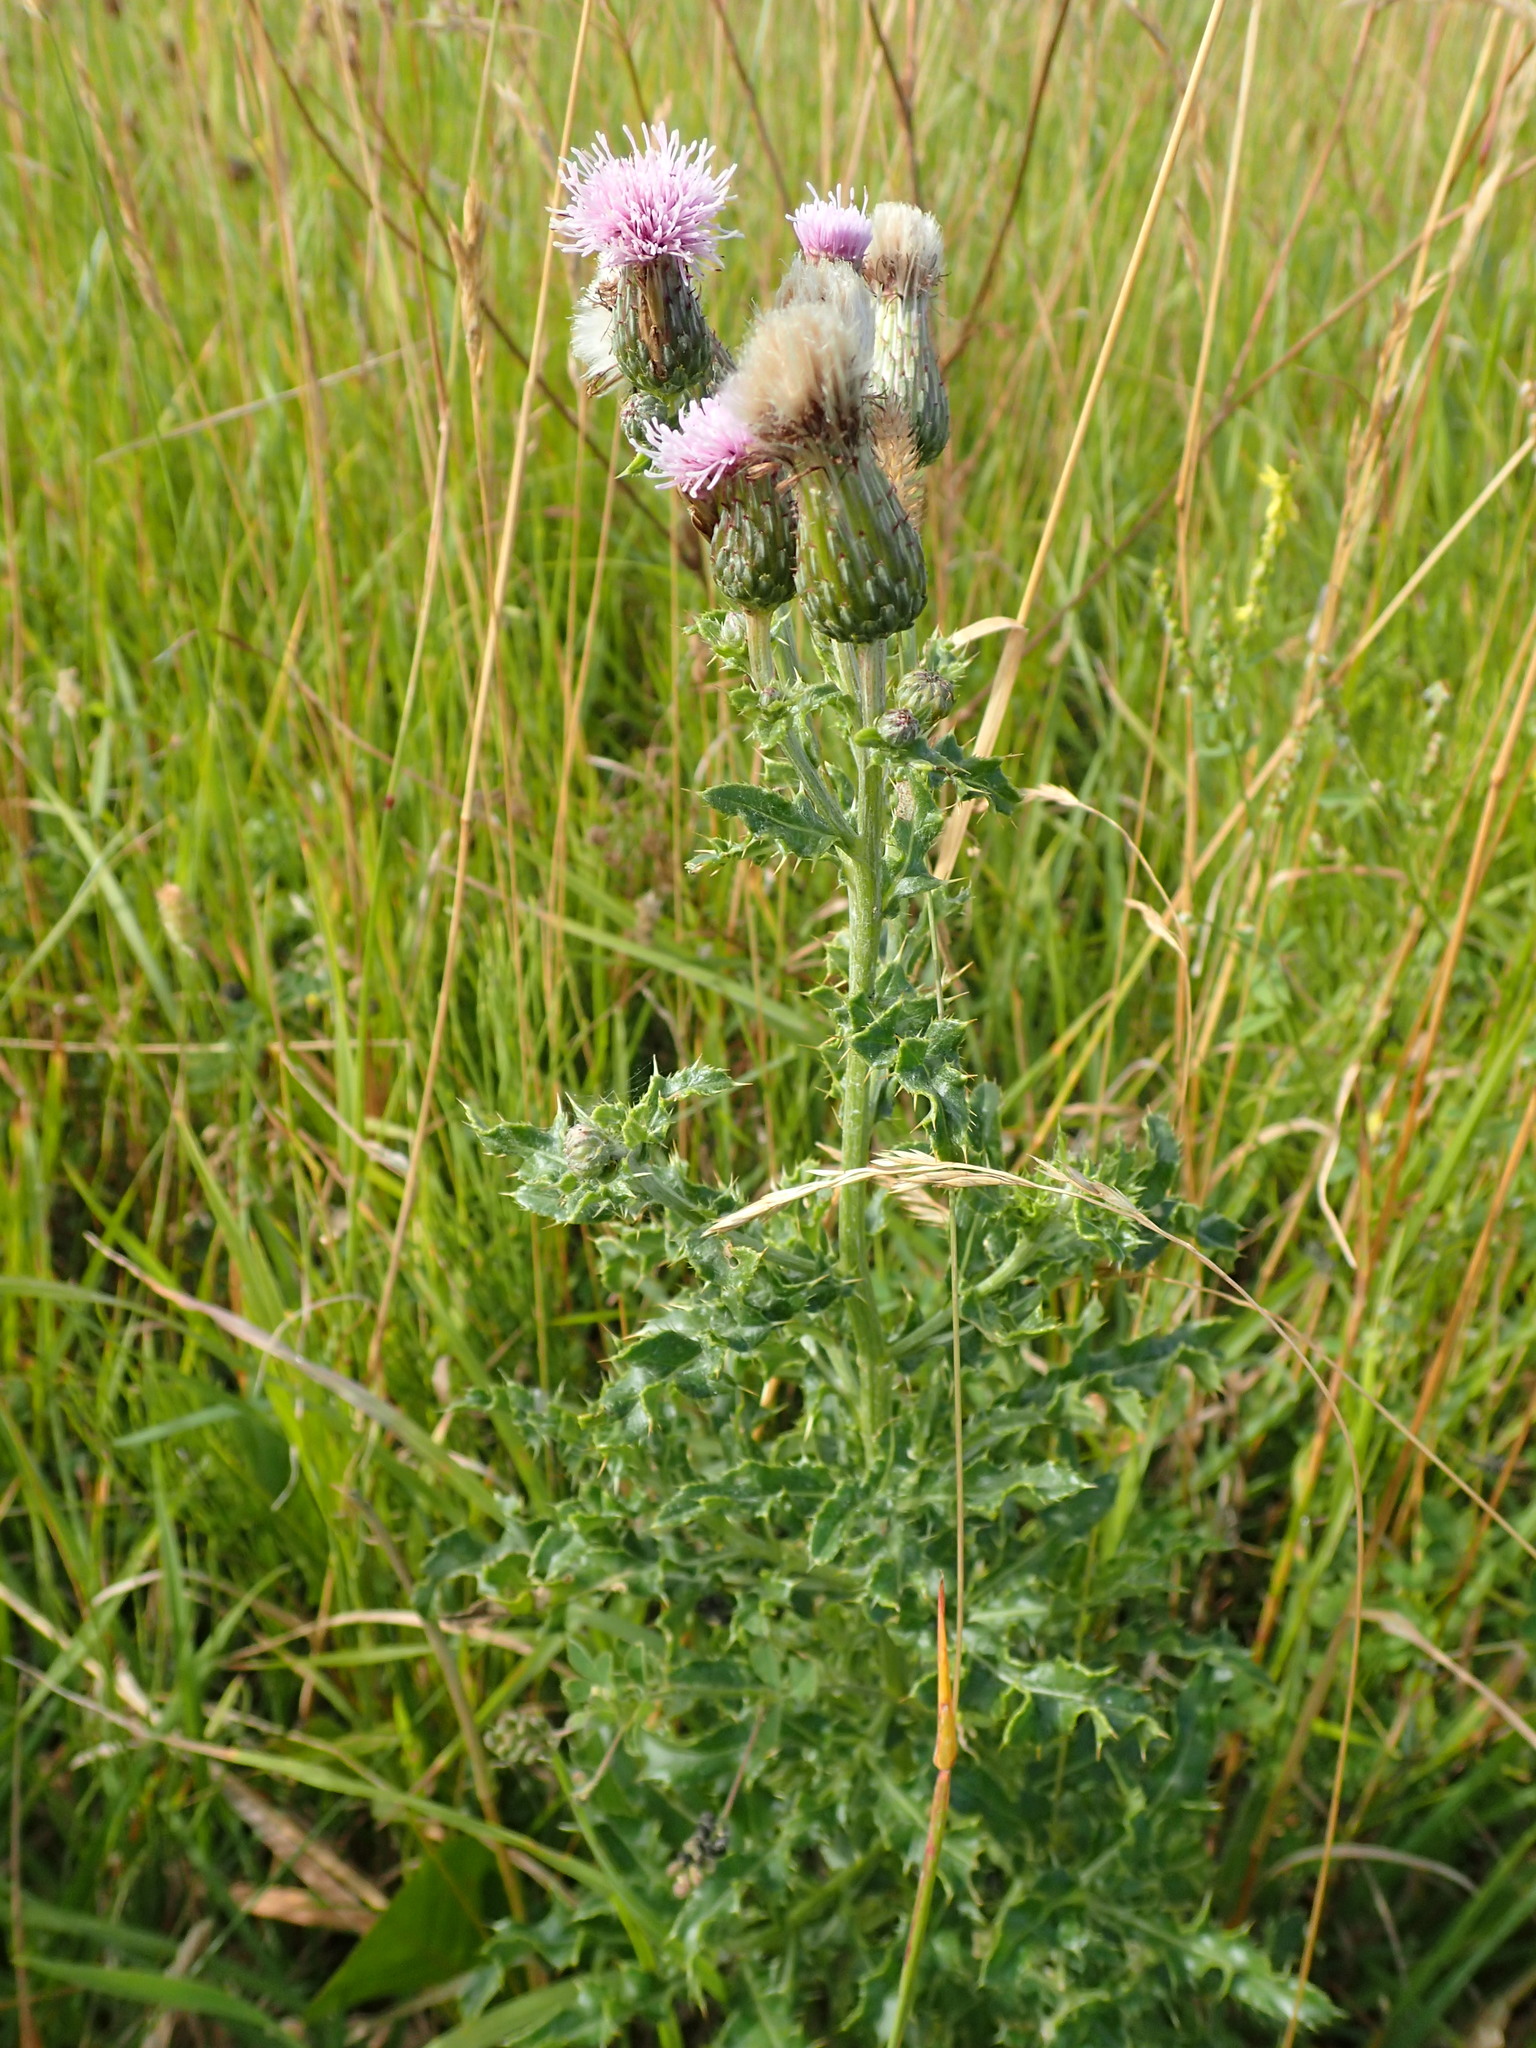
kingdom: Plantae
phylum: Tracheophyta
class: Magnoliopsida
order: Asterales
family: Asteraceae
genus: Cirsium
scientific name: Cirsium arvense
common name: Creeping thistle
